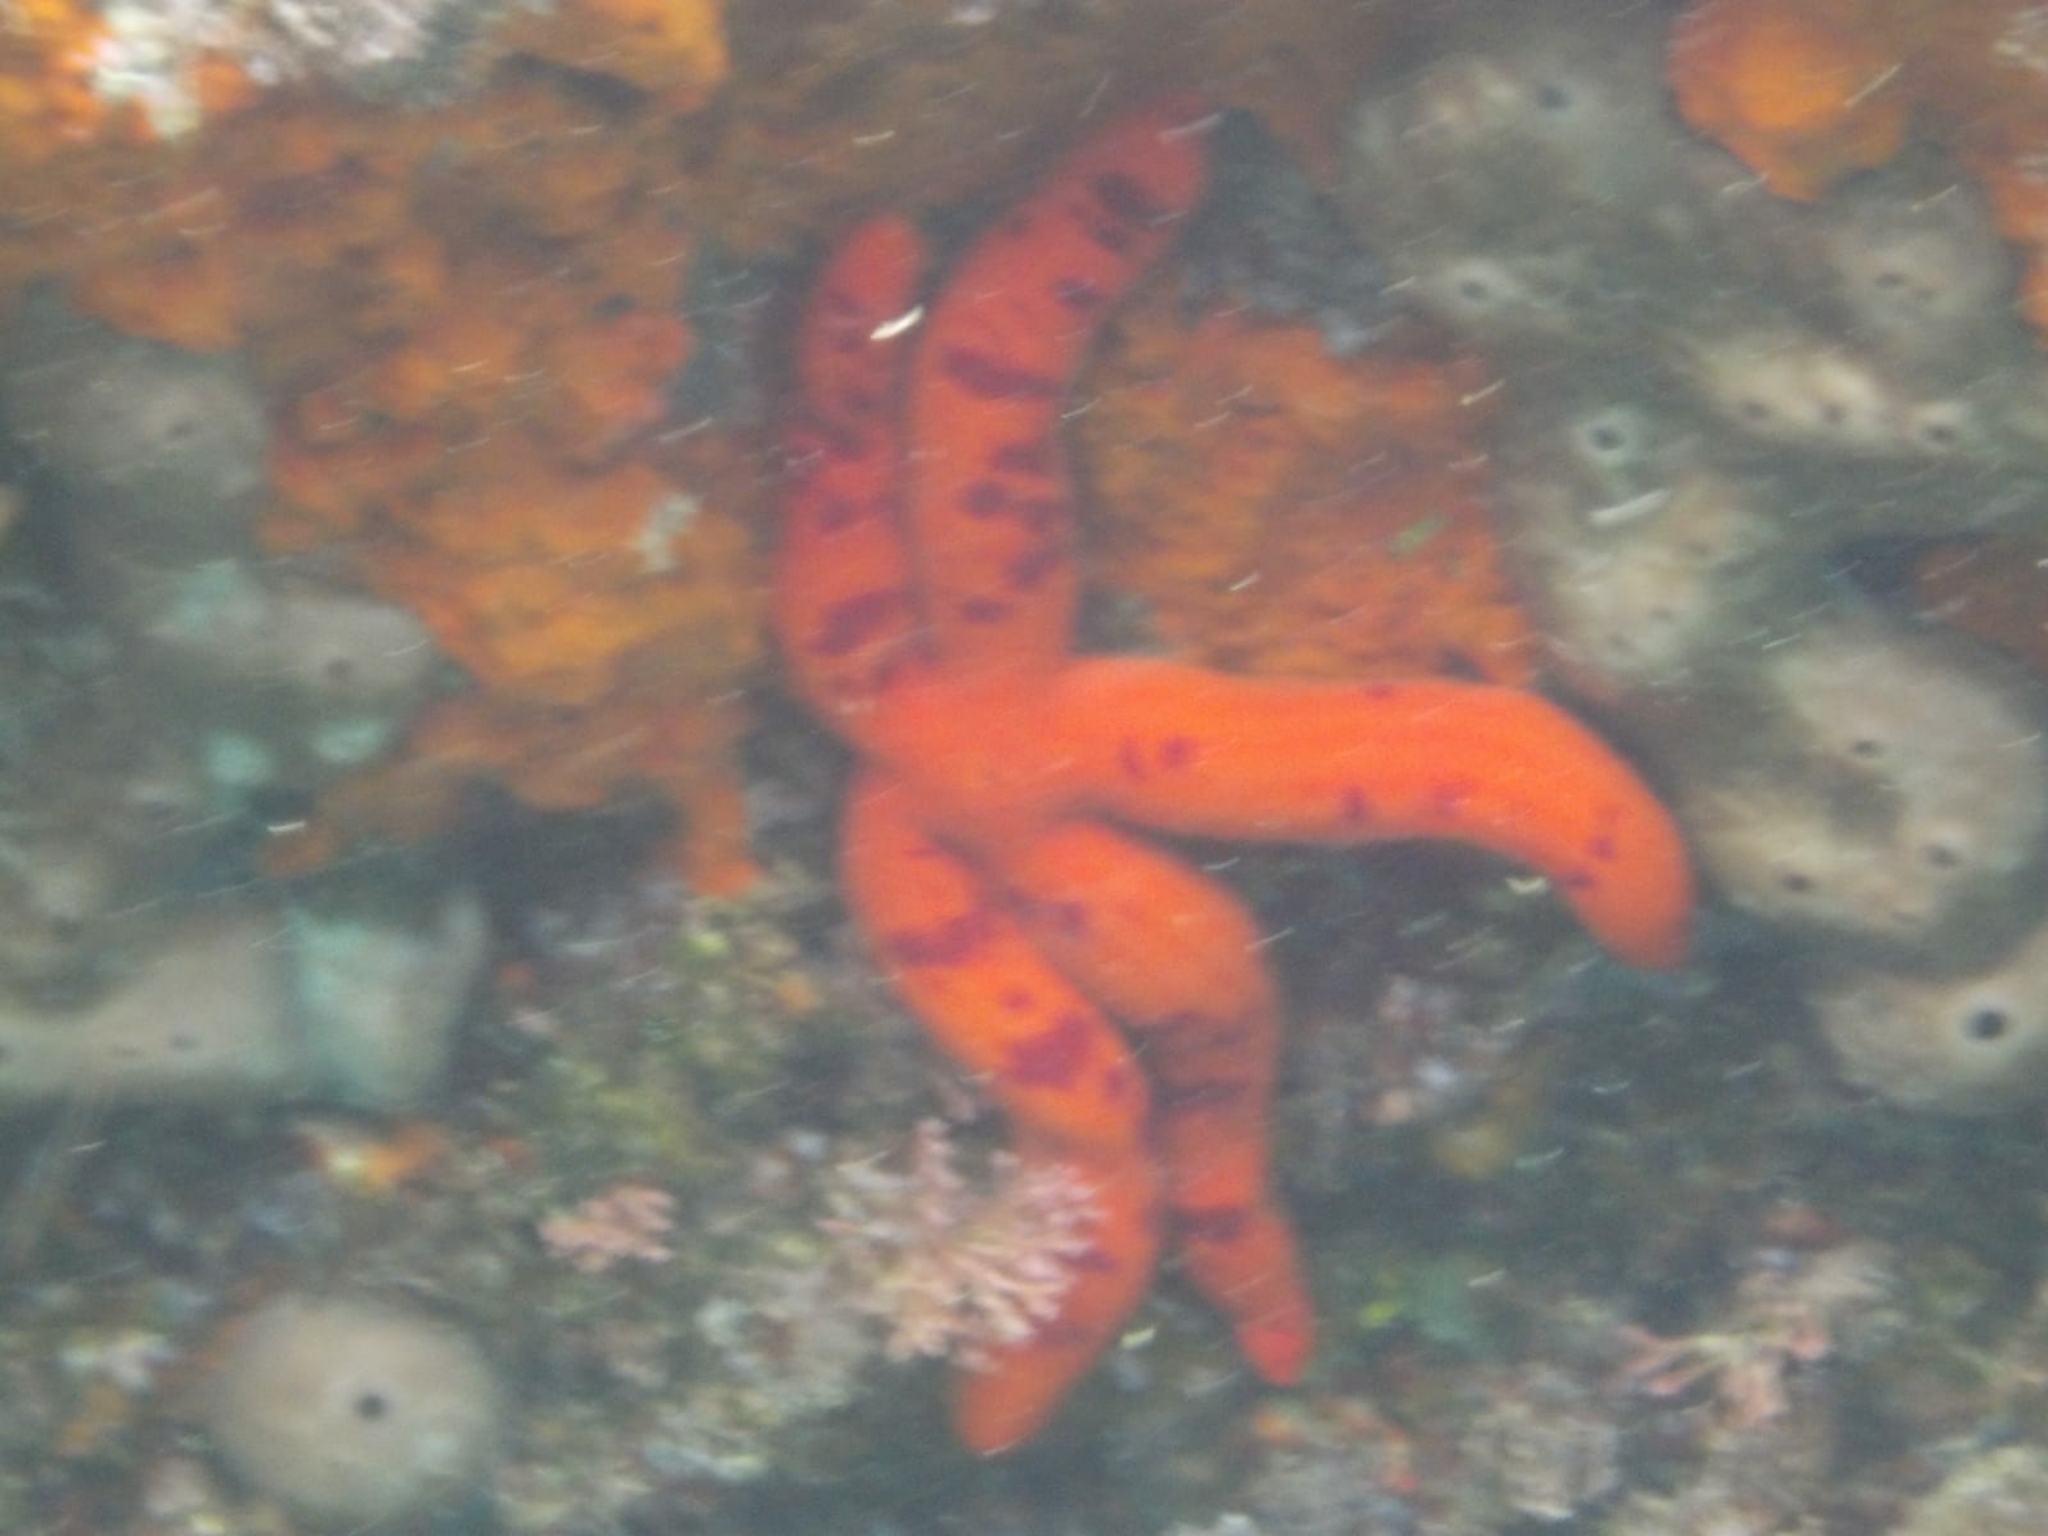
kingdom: Animalia
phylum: Echinodermata
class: Asteroidea
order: Valvatida
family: Ophidiasteridae
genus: Ophidiaster
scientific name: Ophidiaster ophidianus
